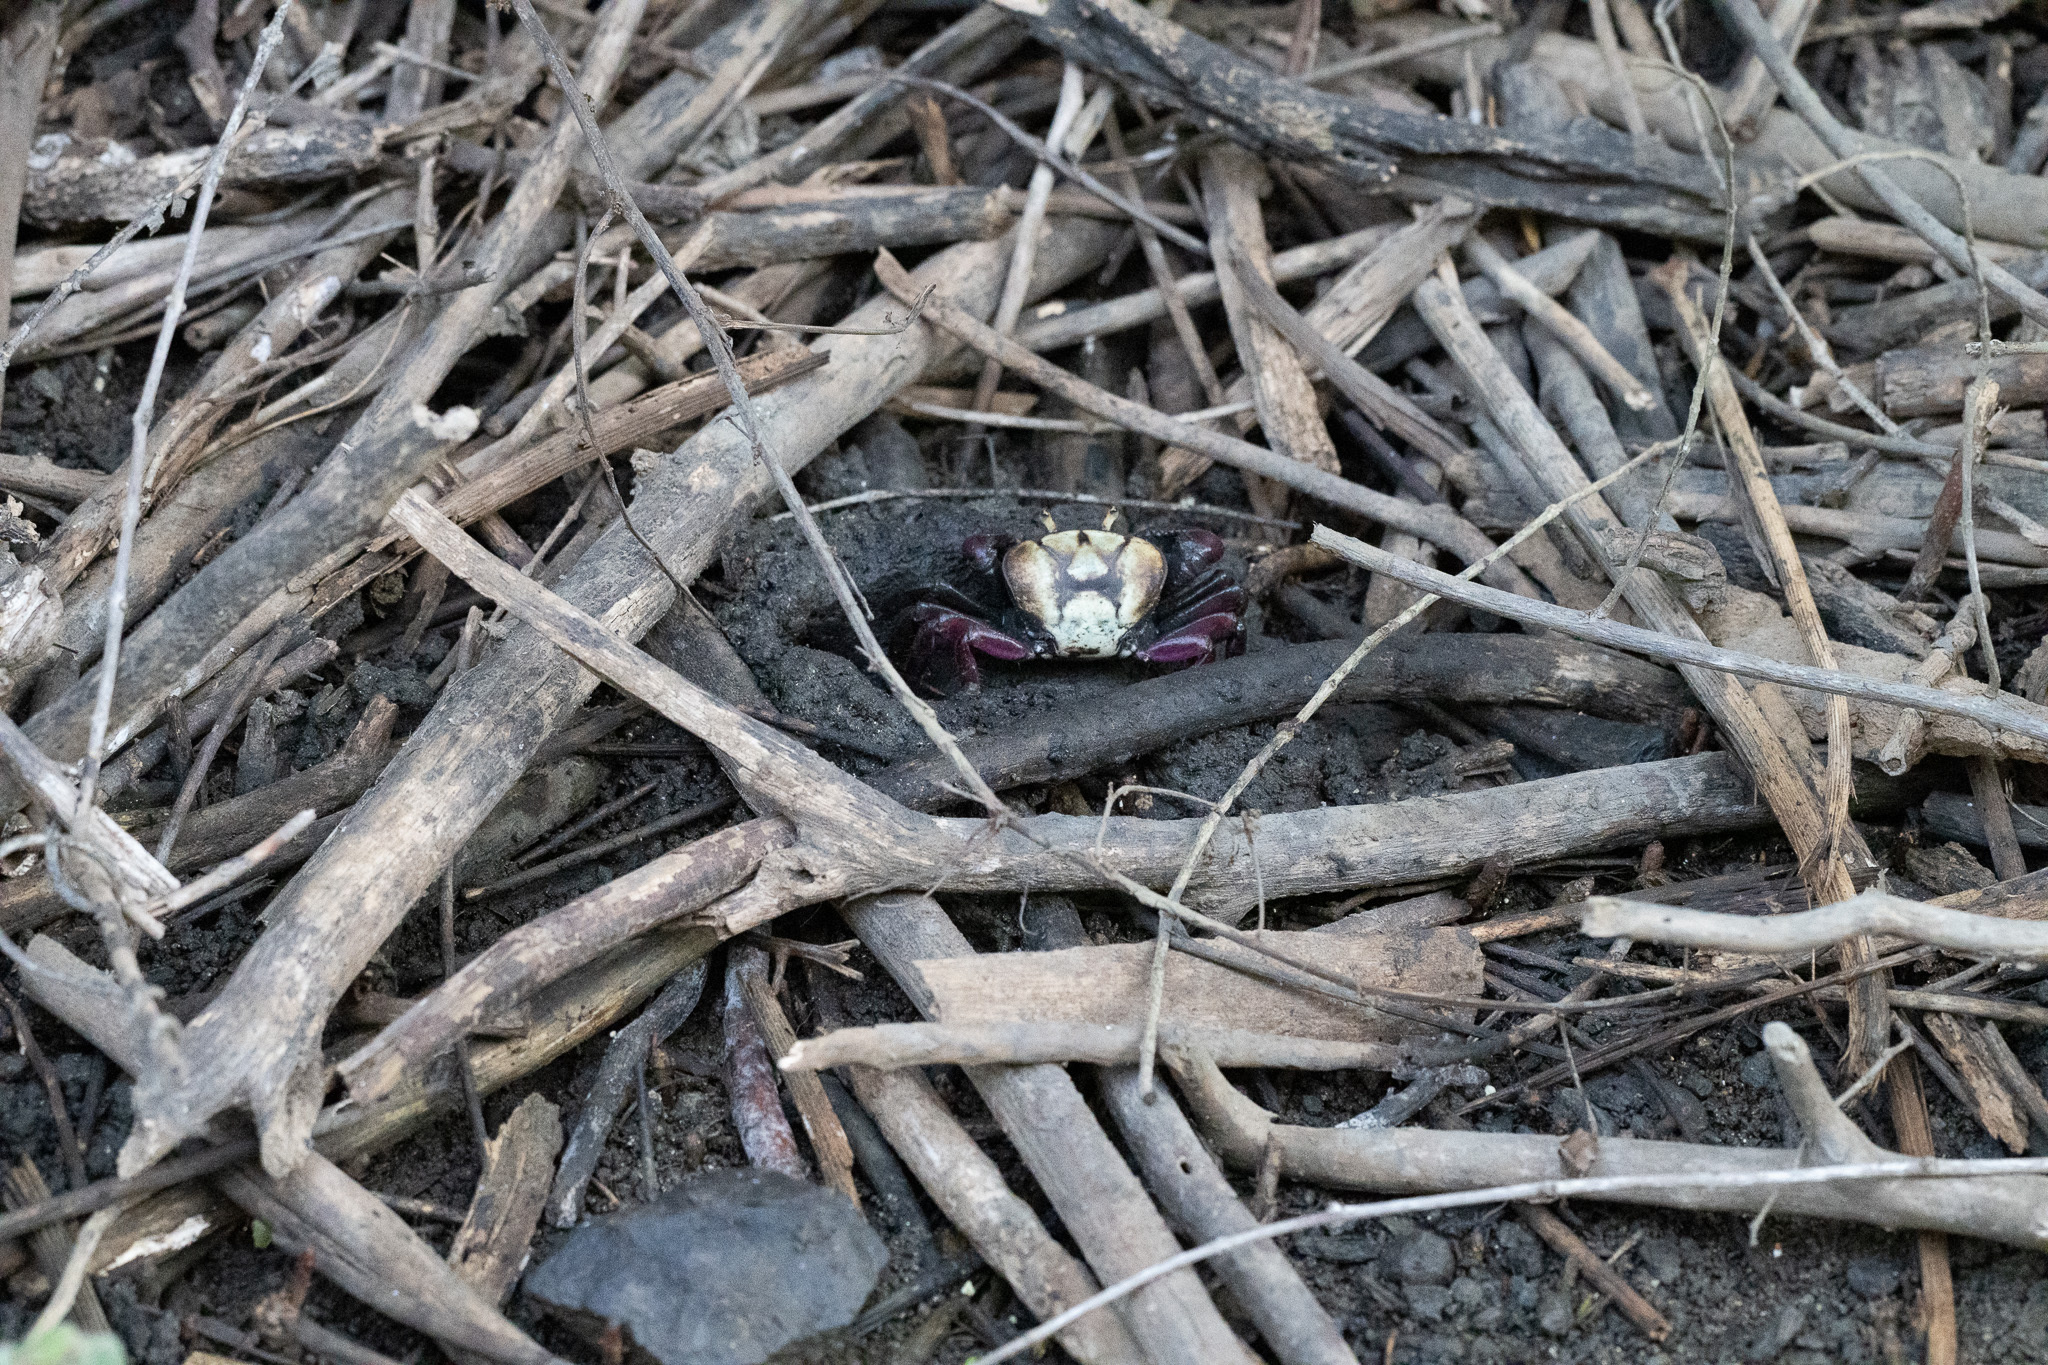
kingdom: Animalia
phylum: Arthropoda
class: Malacostraca
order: Decapoda
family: Ocypodidae
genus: Ucides
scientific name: Ucides cordatus
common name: Swamp ghost crab
